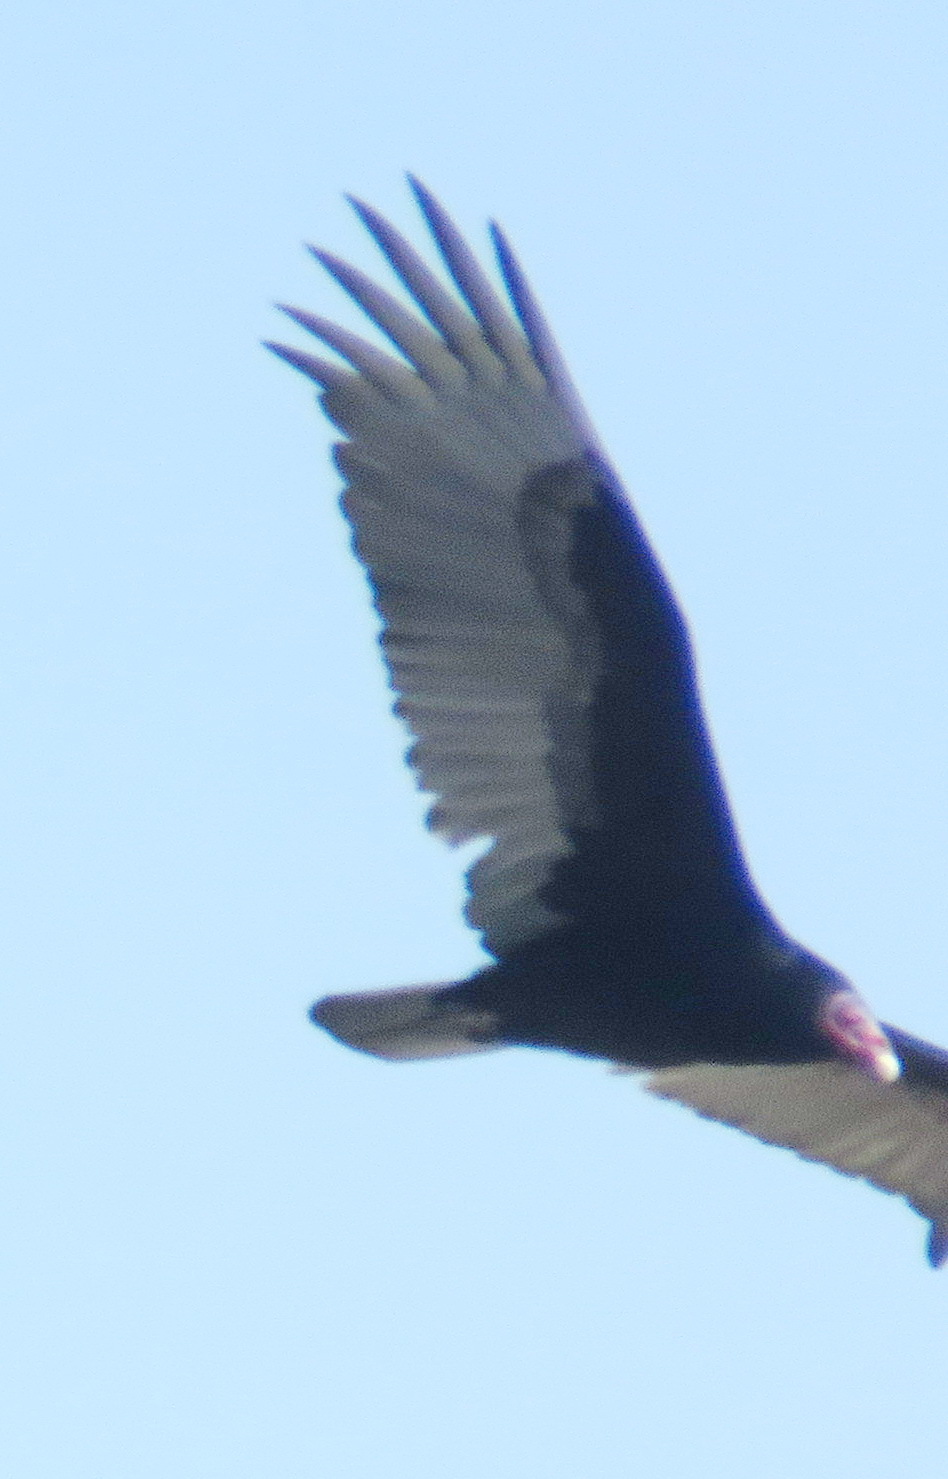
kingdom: Animalia
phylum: Chordata
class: Aves
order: Accipitriformes
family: Cathartidae
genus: Cathartes
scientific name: Cathartes aura
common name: Turkey vulture
